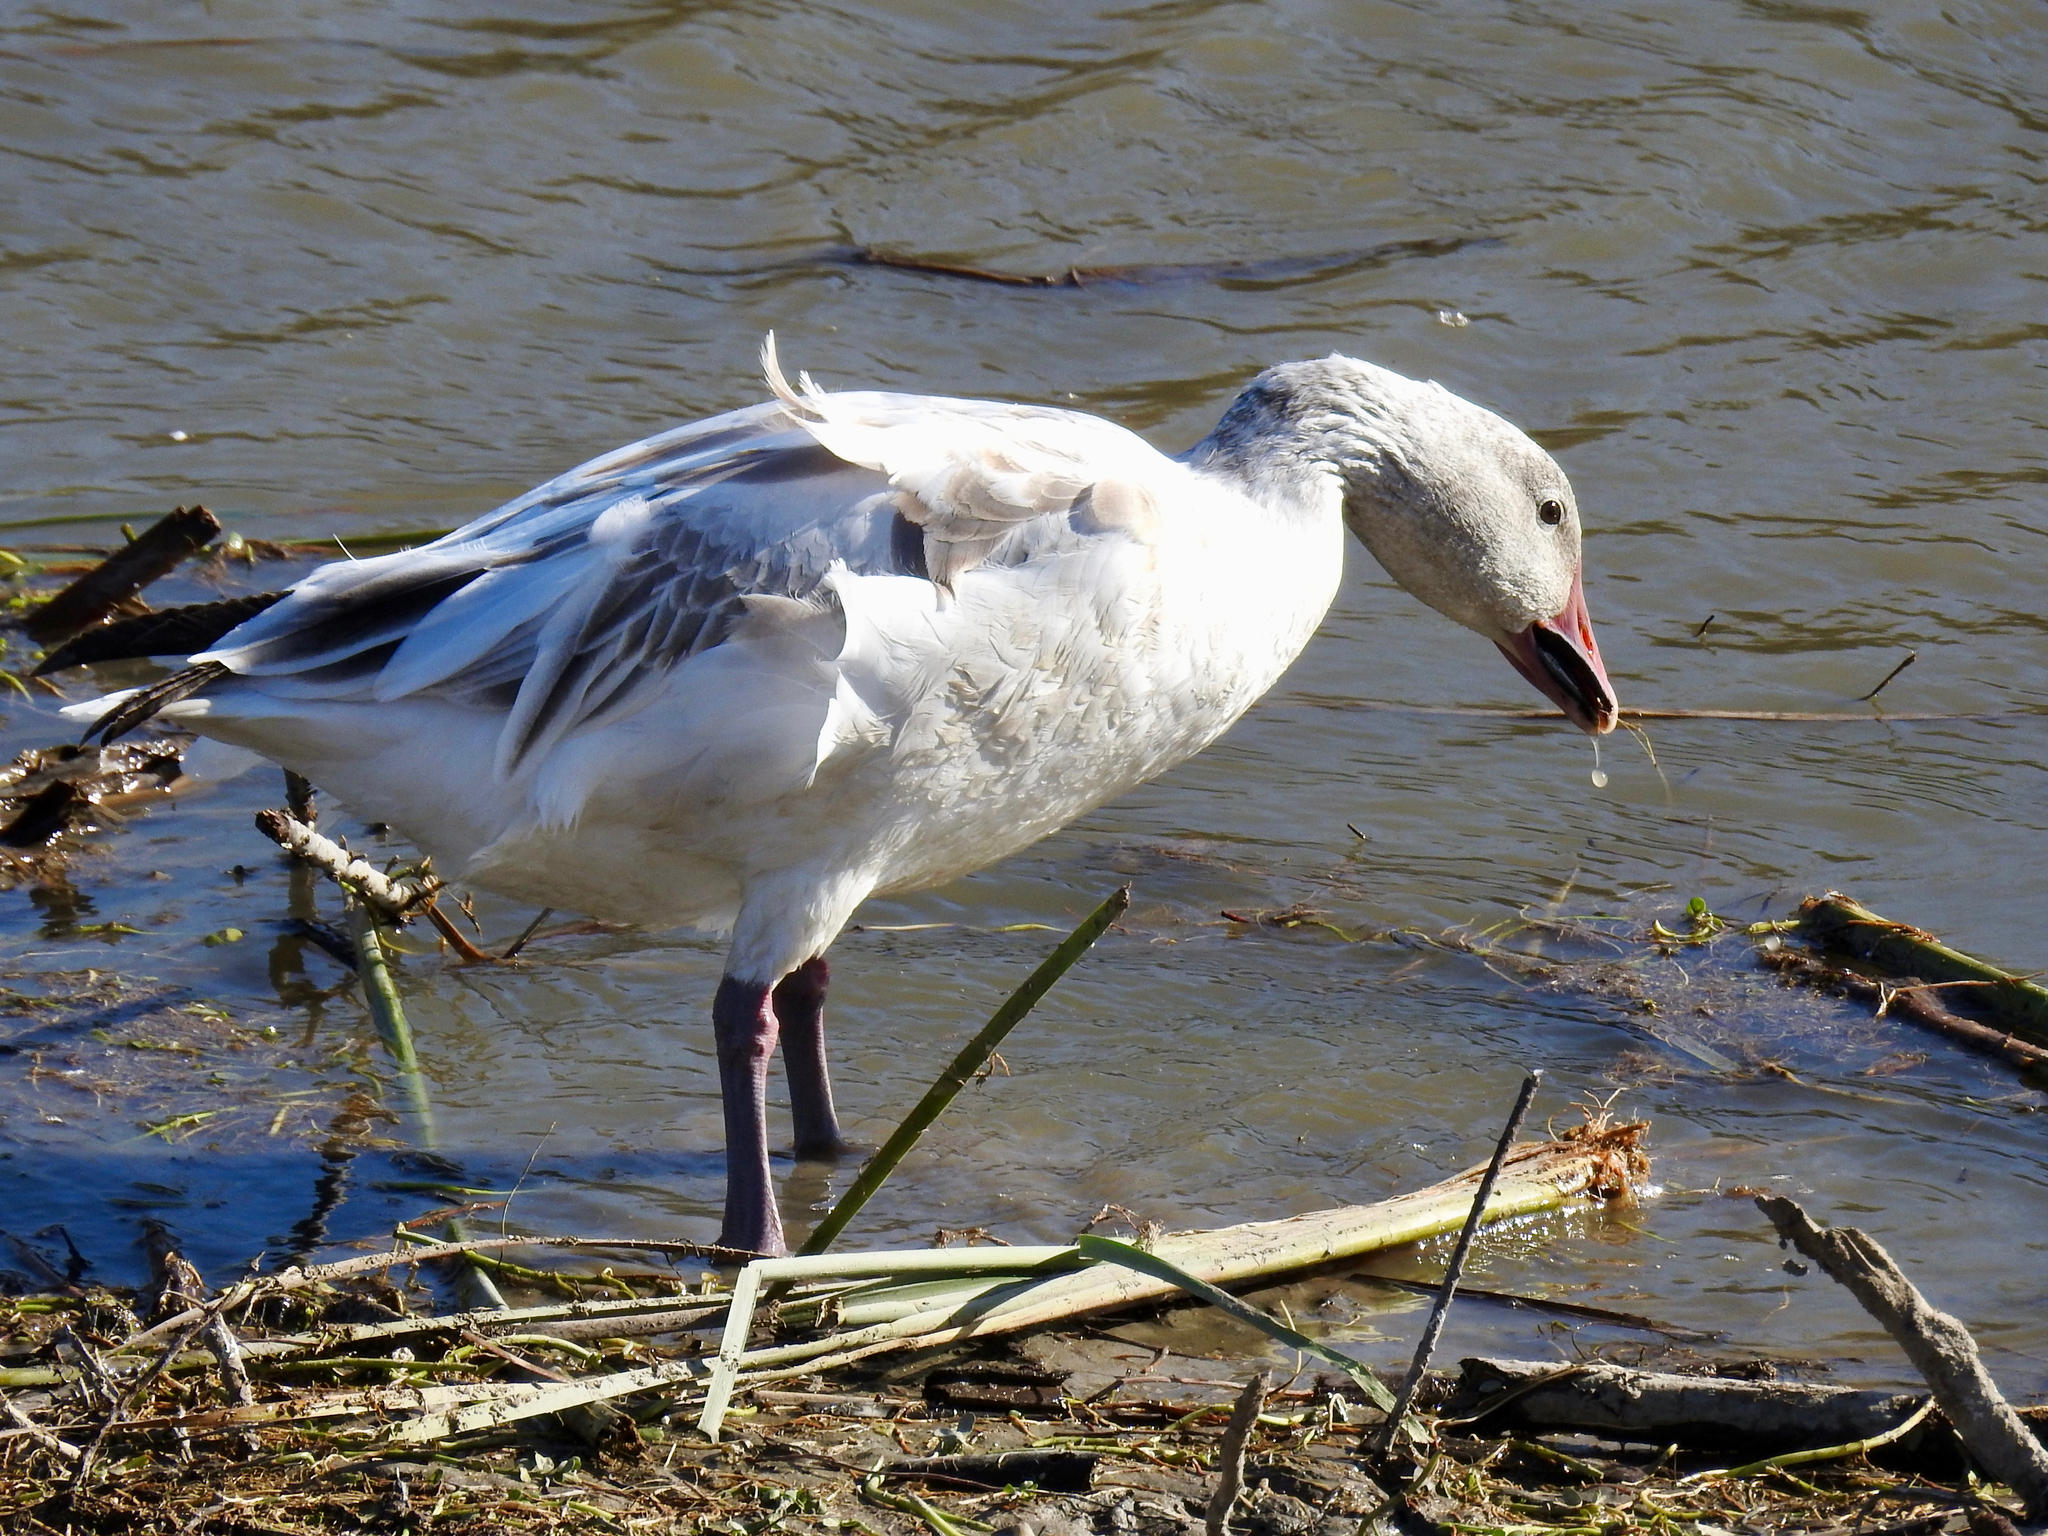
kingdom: Animalia
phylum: Chordata
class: Aves
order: Anseriformes
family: Anatidae
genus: Anser
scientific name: Anser caerulescens
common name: Snow goose
